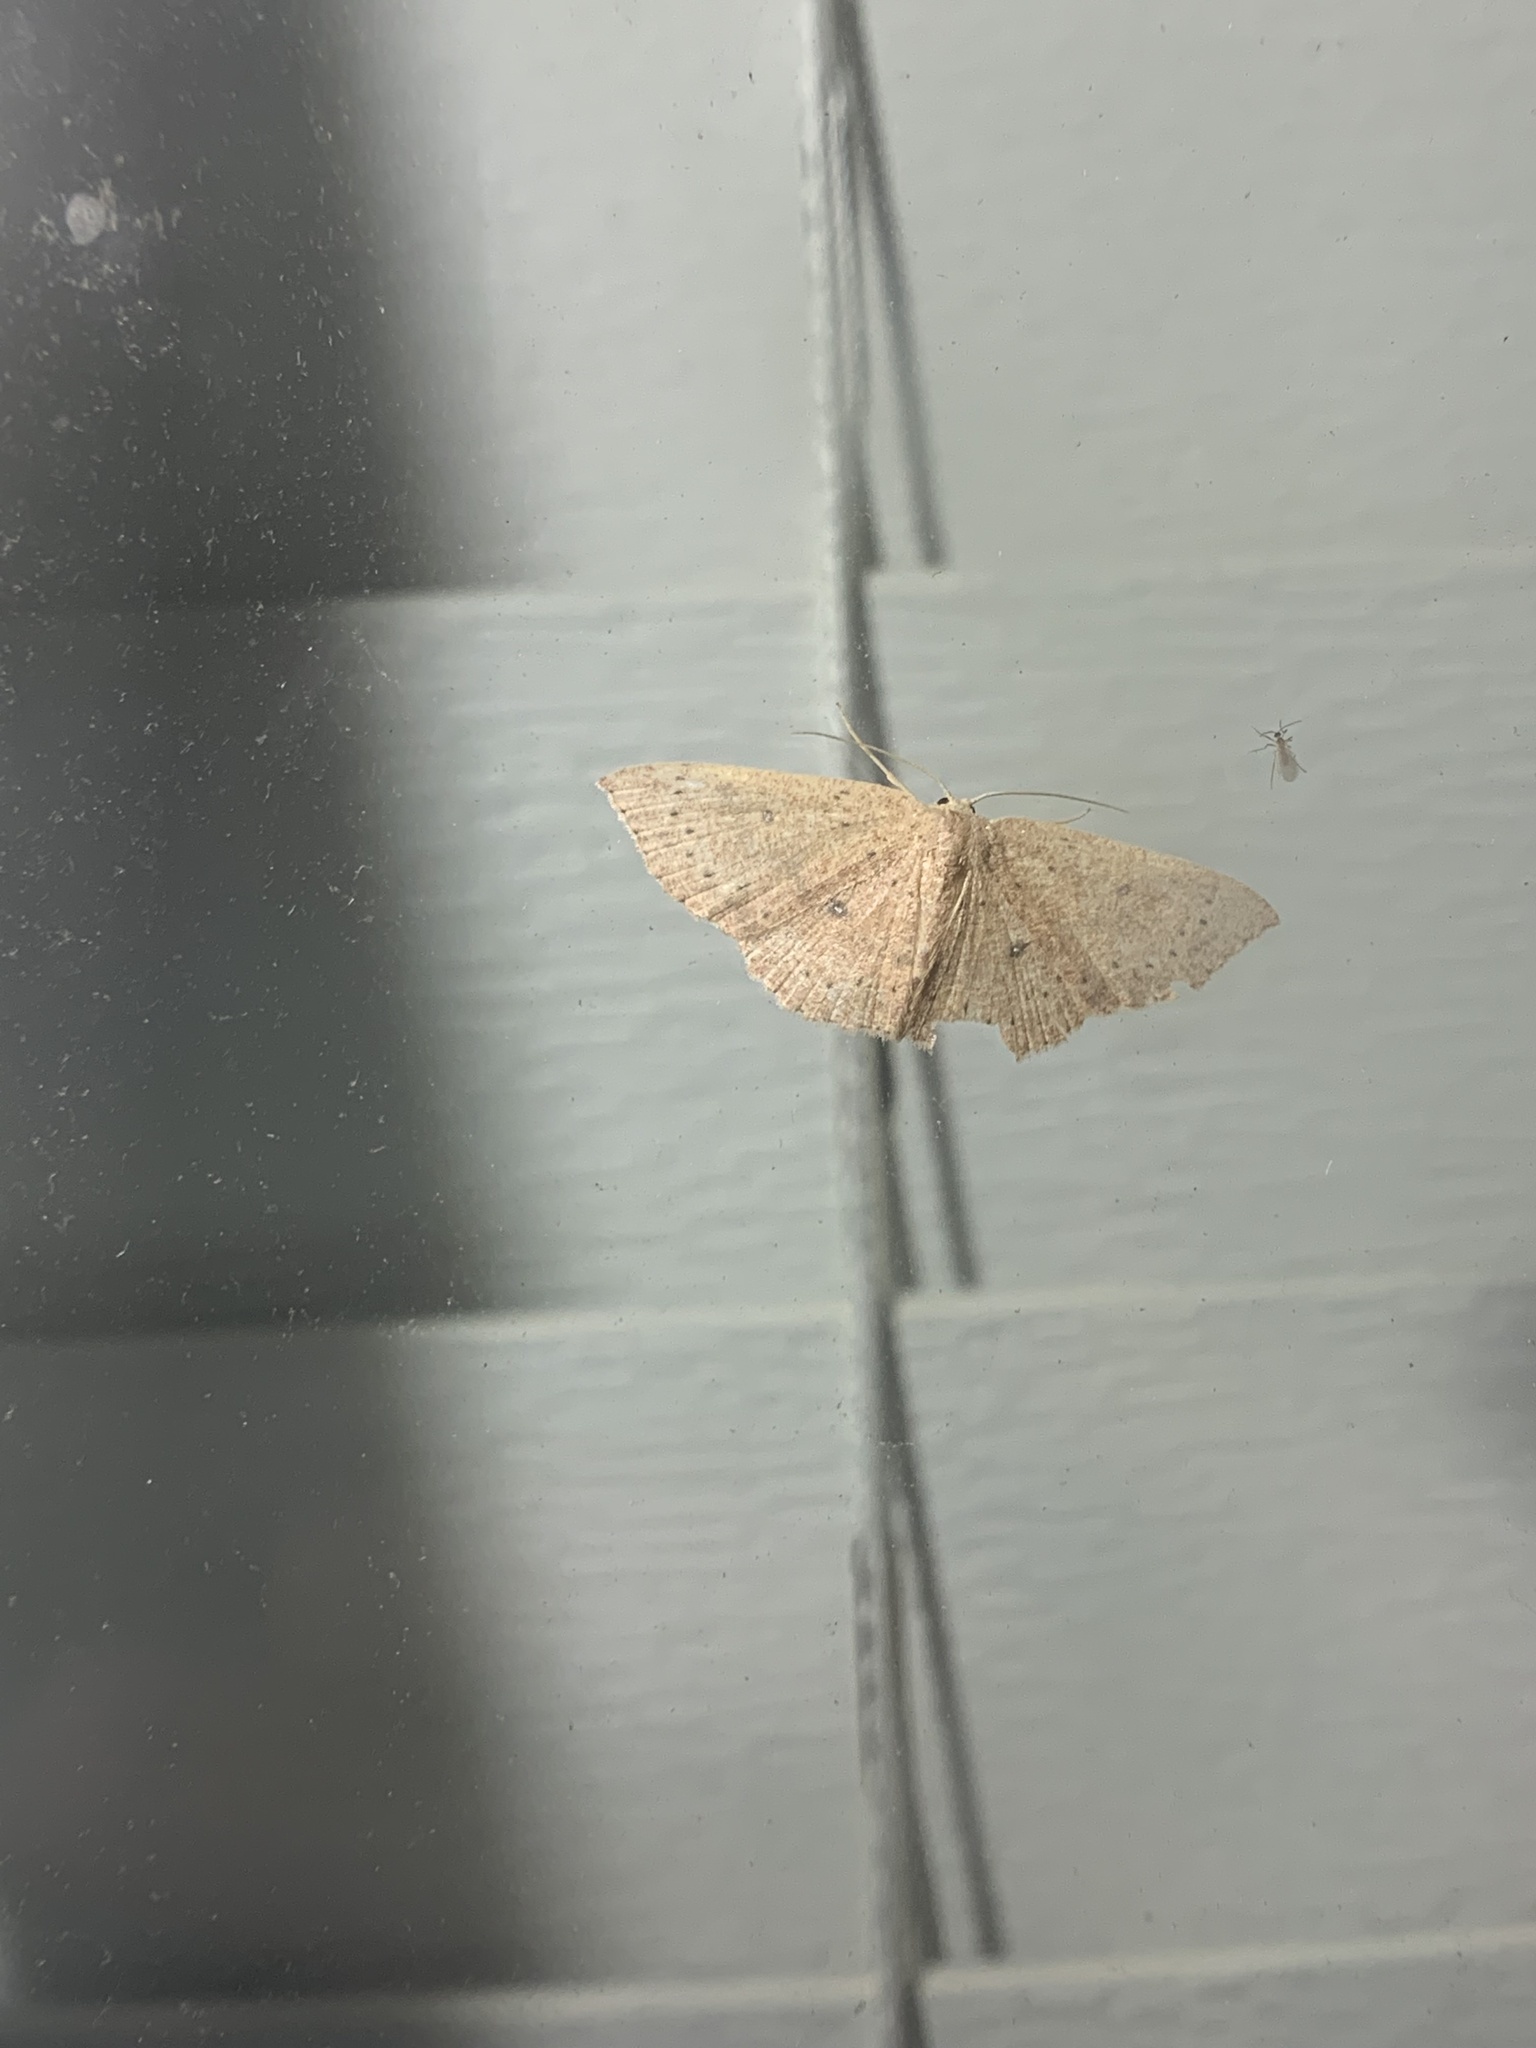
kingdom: Animalia
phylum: Arthropoda
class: Insecta
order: Lepidoptera
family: Geometridae
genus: Cyclophora
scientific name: Cyclophora packardi
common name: Packard's wave
